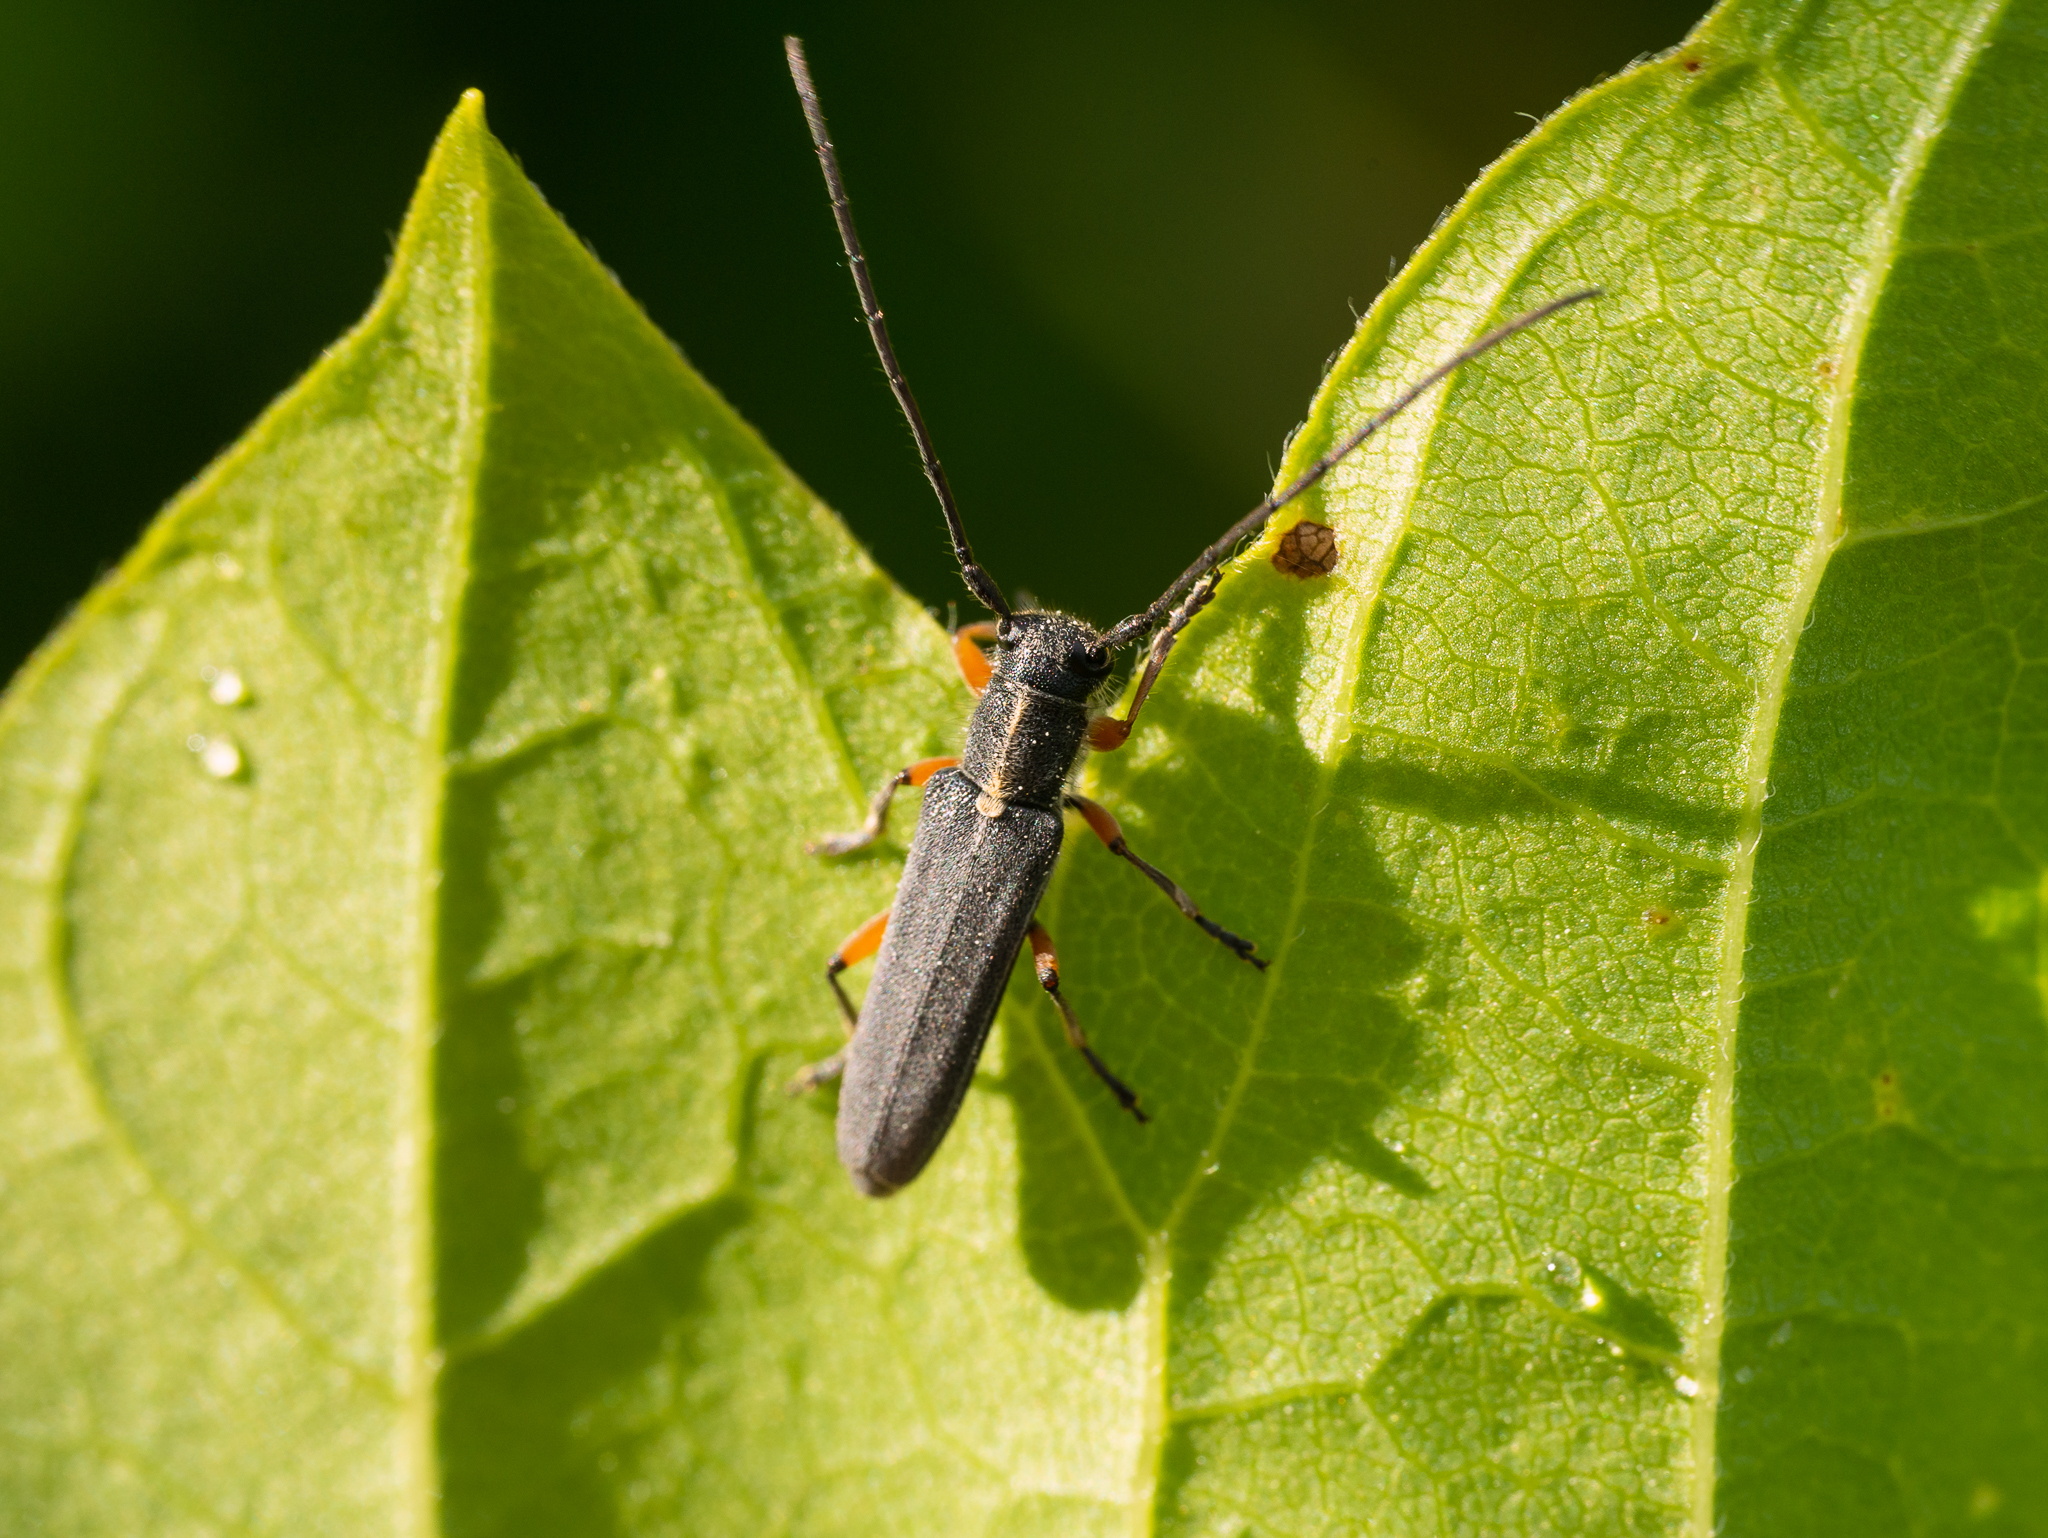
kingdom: Animalia
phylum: Arthropoda
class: Insecta
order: Coleoptera
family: Cerambycidae
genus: Phytoecia
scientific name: Phytoecia icterica
